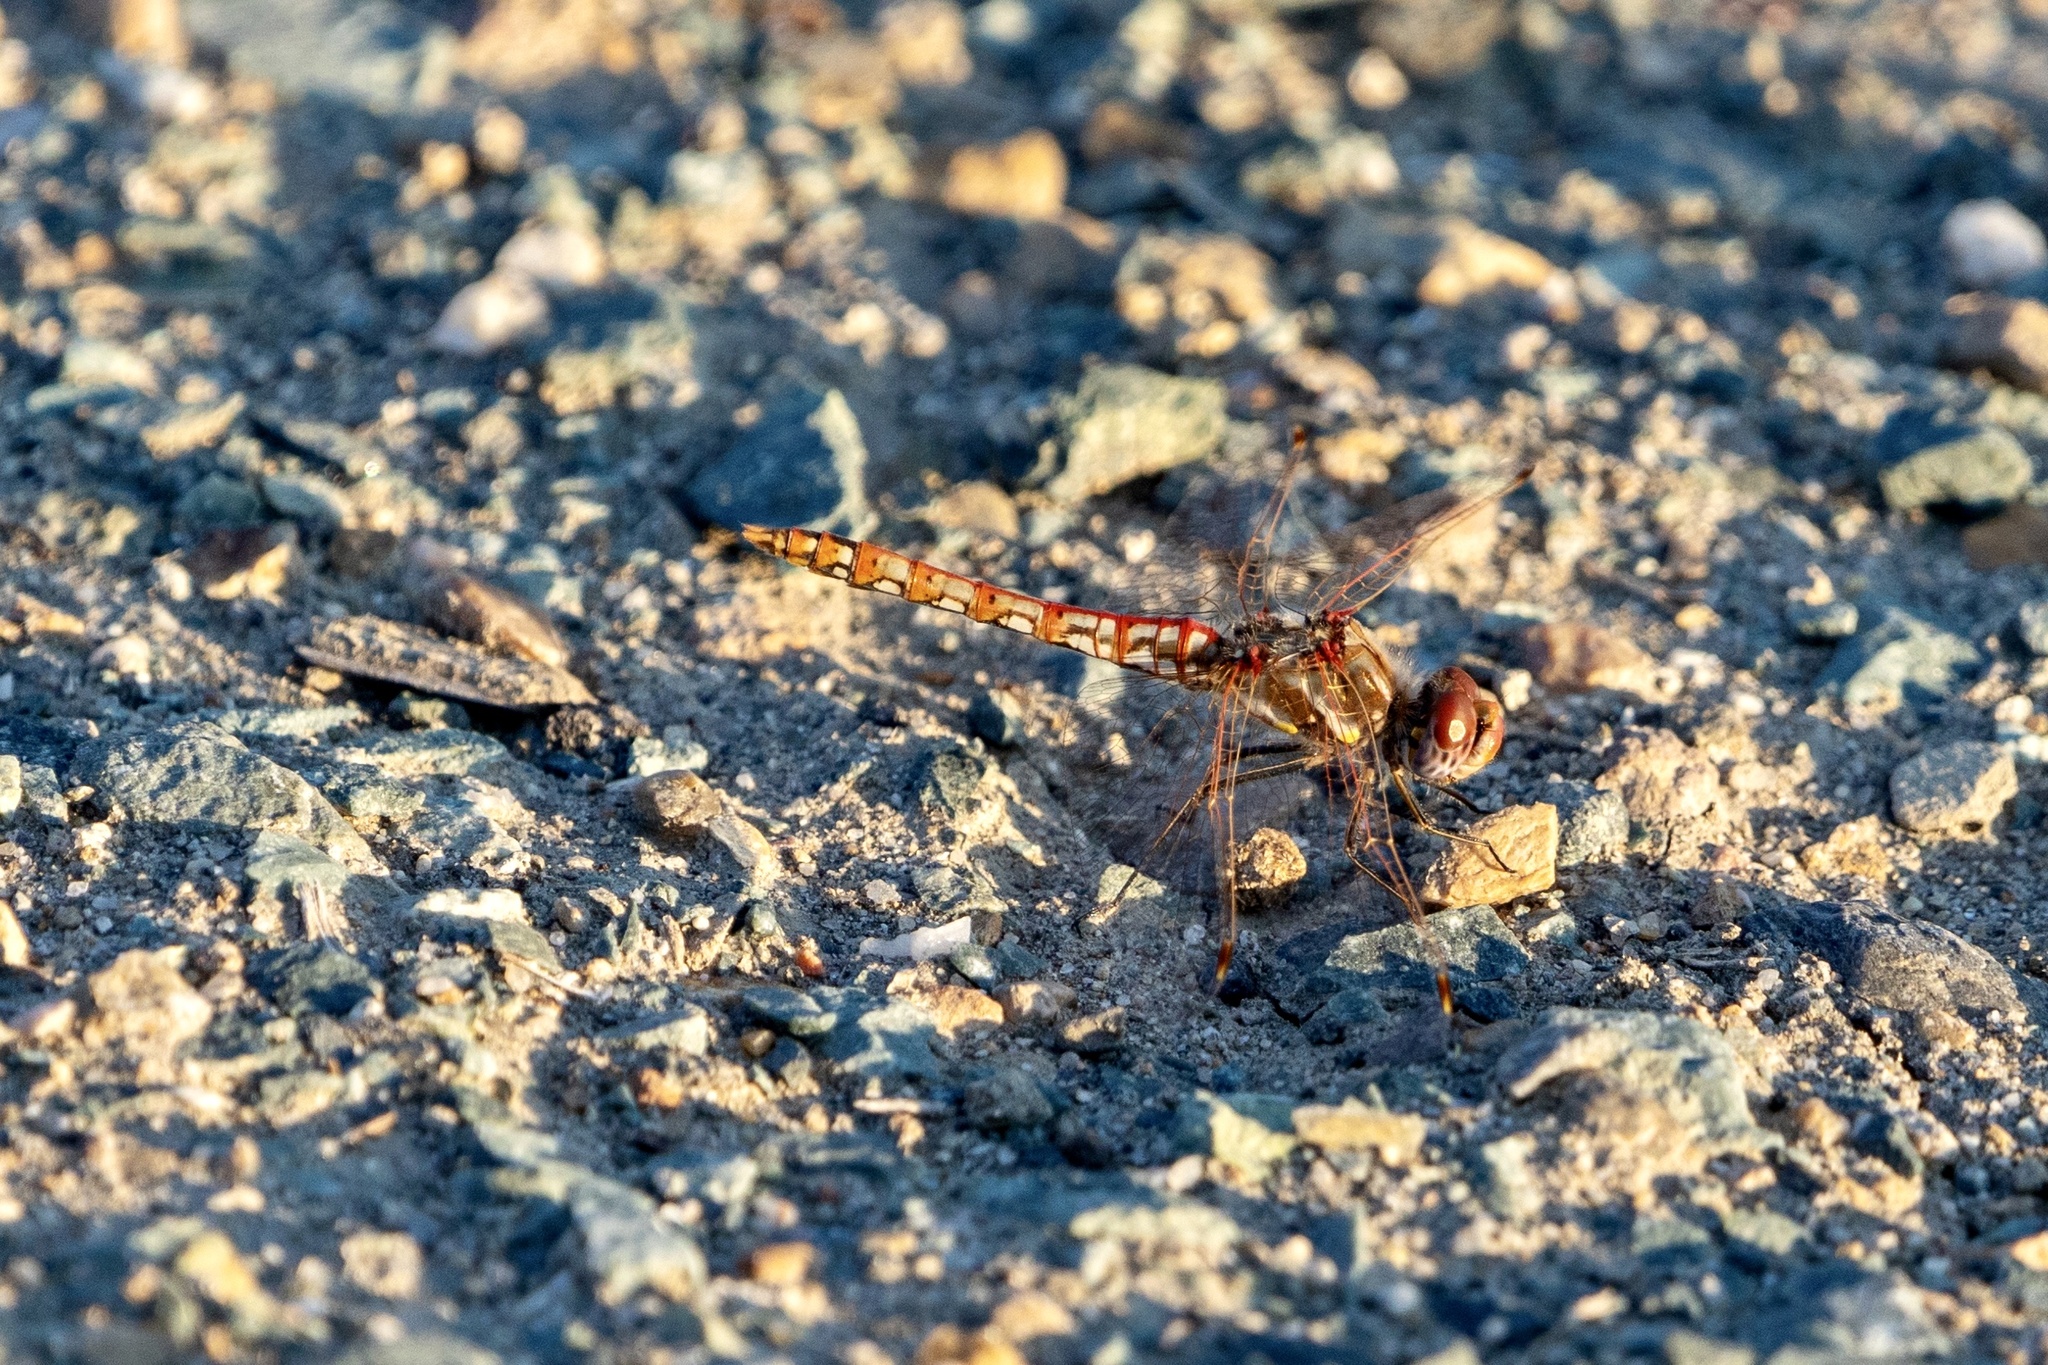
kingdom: Animalia
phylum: Arthropoda
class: Insecta
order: Odonata
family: Libellulidae
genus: Sympetrum
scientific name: Sympetrum corruptum
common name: Variegated meadowhawk
